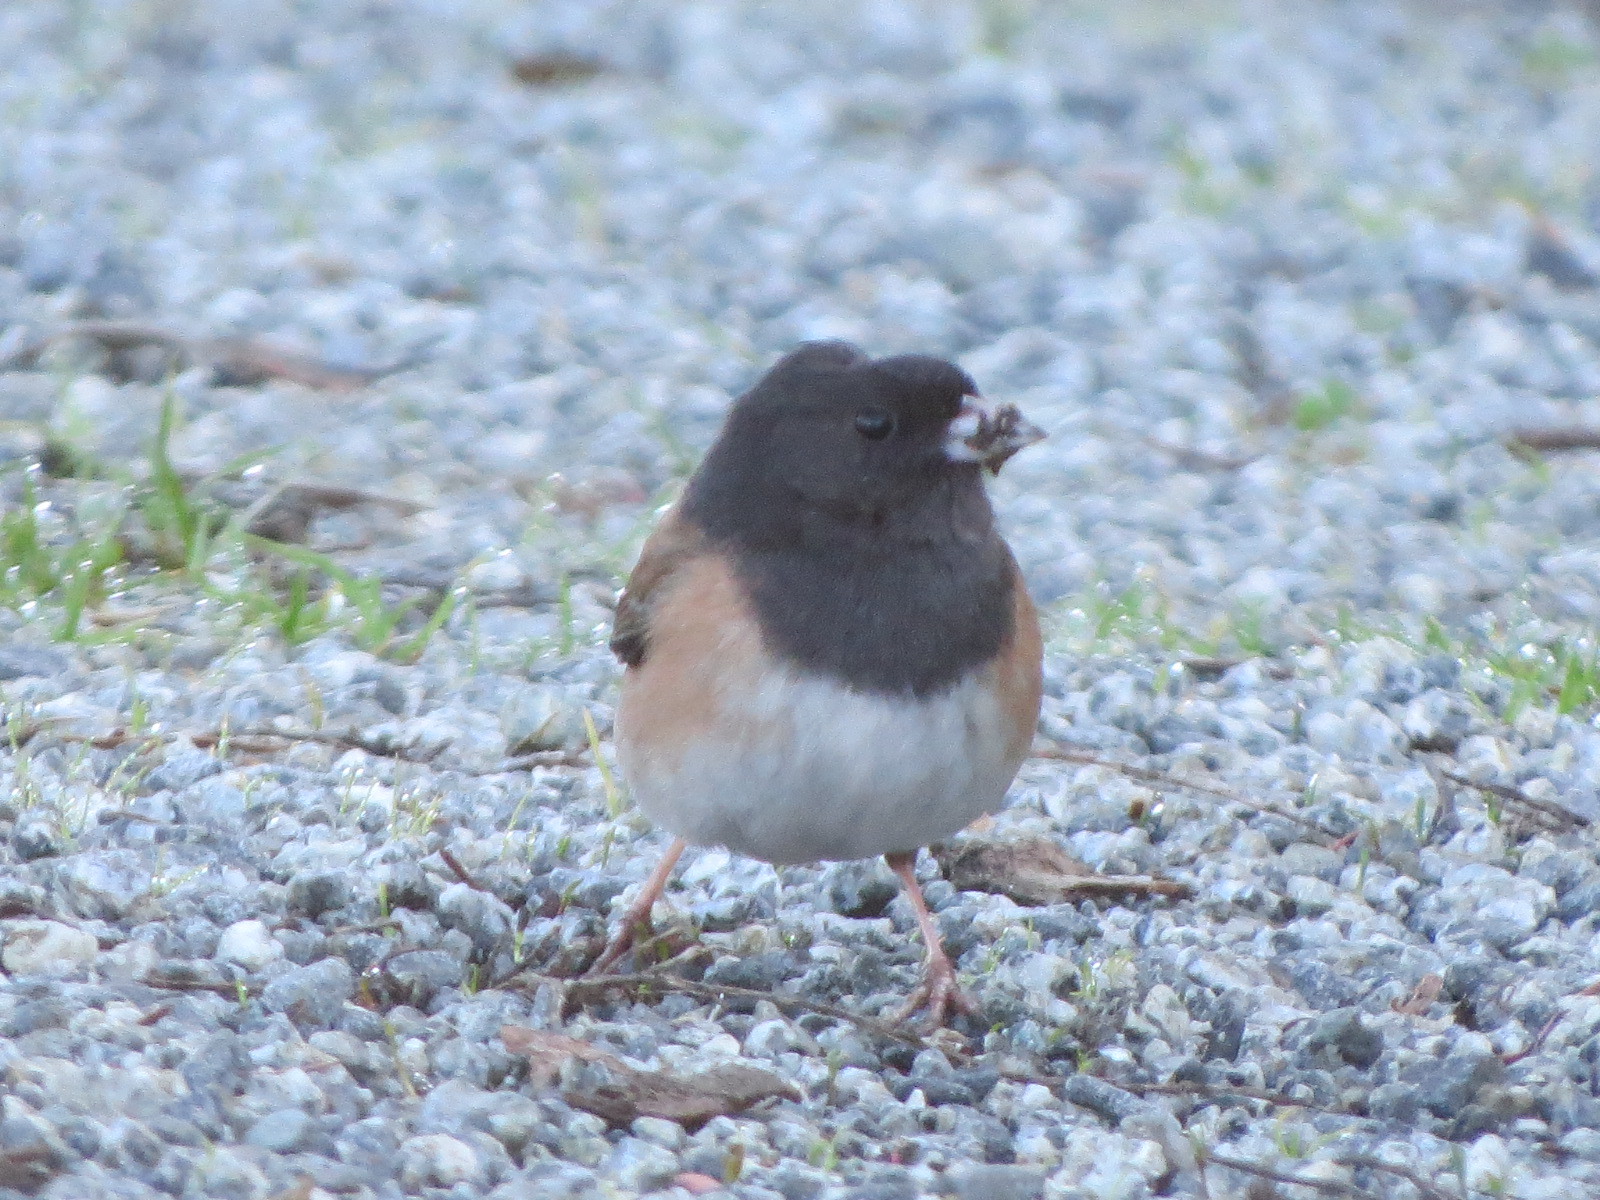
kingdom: Animalia
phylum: Chordata
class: Aves
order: Passeriformes
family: Passerellidae
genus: Junco
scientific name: Junco hyemalis
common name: Dark-eyed junco
